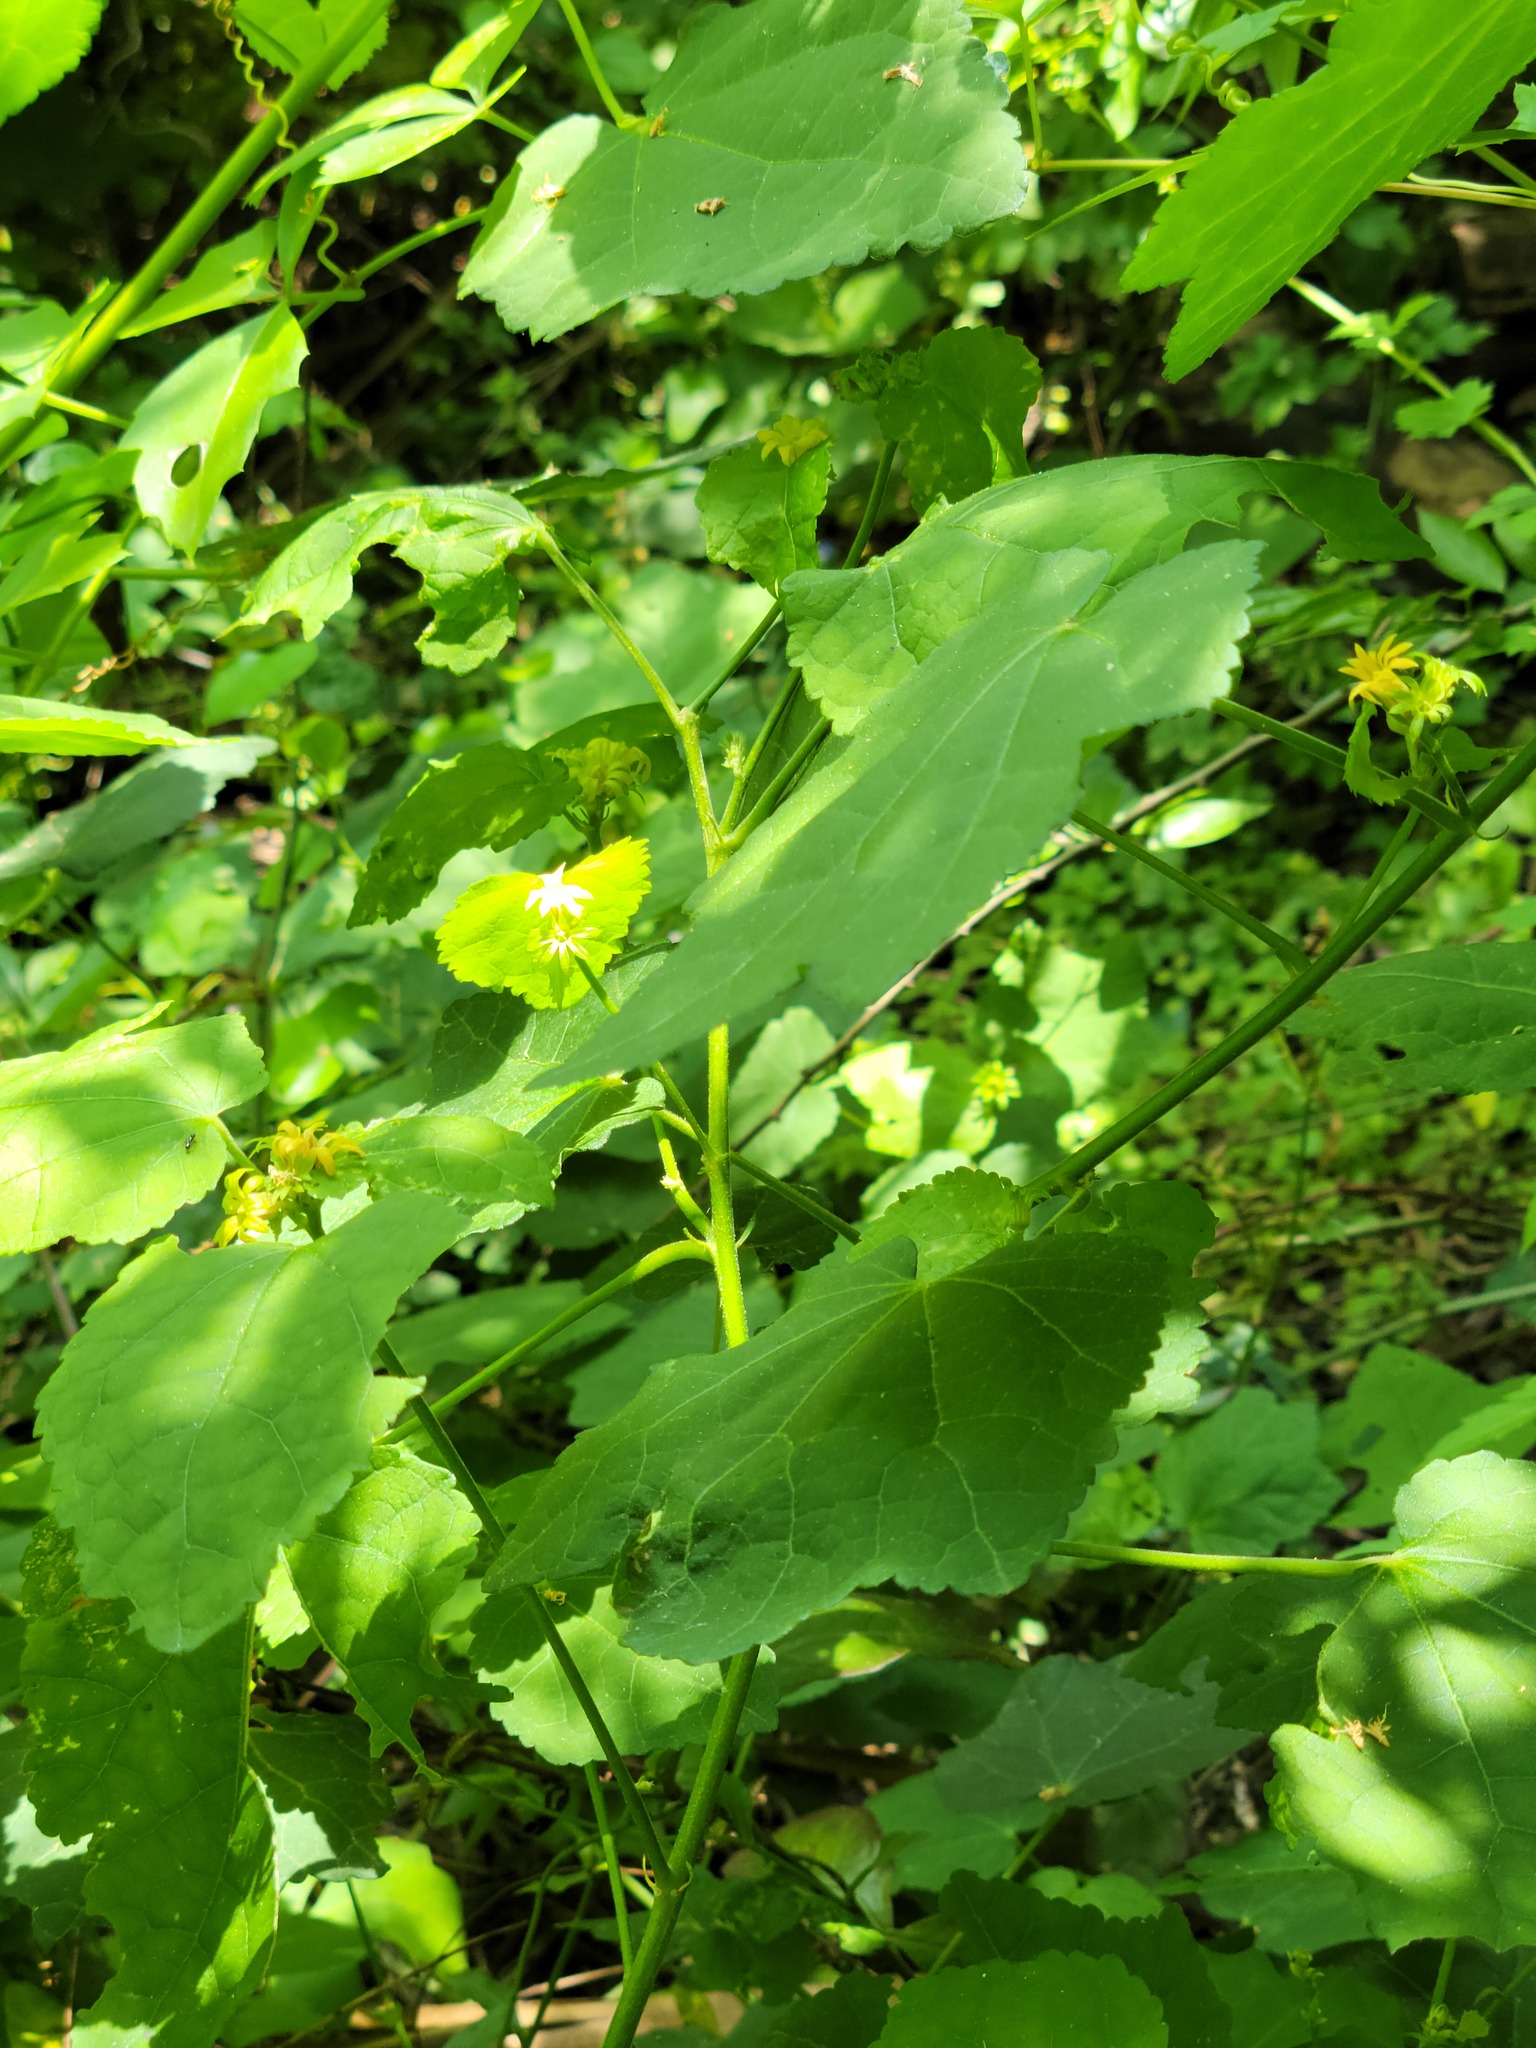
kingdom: Plantae
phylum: Tracheophyta
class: Magnoliopsida
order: Malvales
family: Malvaceae
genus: Malvaviscus
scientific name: Malvaviscus arboreus
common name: Wax mallow
